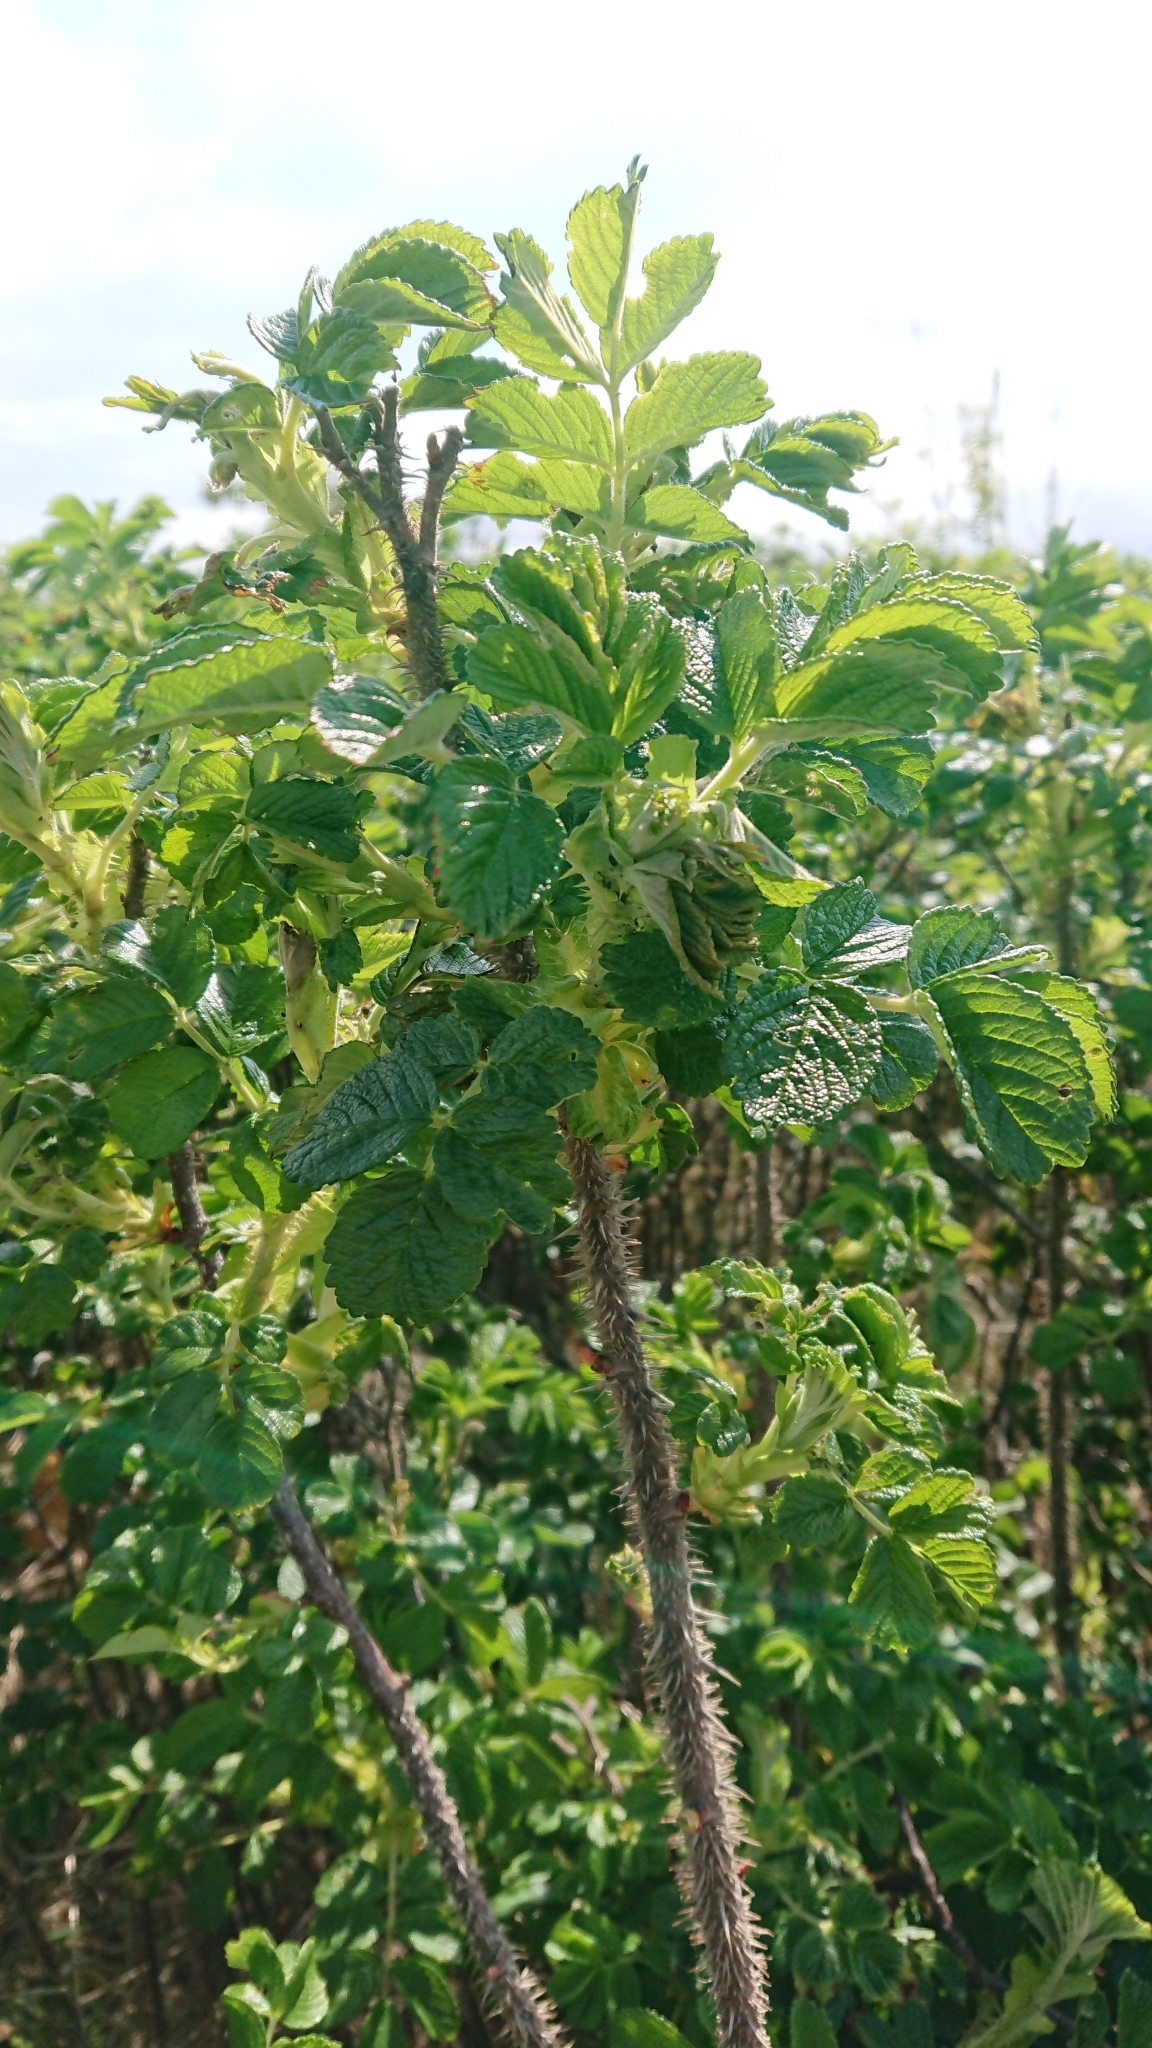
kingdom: Plantae
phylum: Tracheophyta
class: Magnoliopsida
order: Rosales
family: Rosaceae
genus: Rosa
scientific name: Rosa rugosa
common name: Japanese rose
